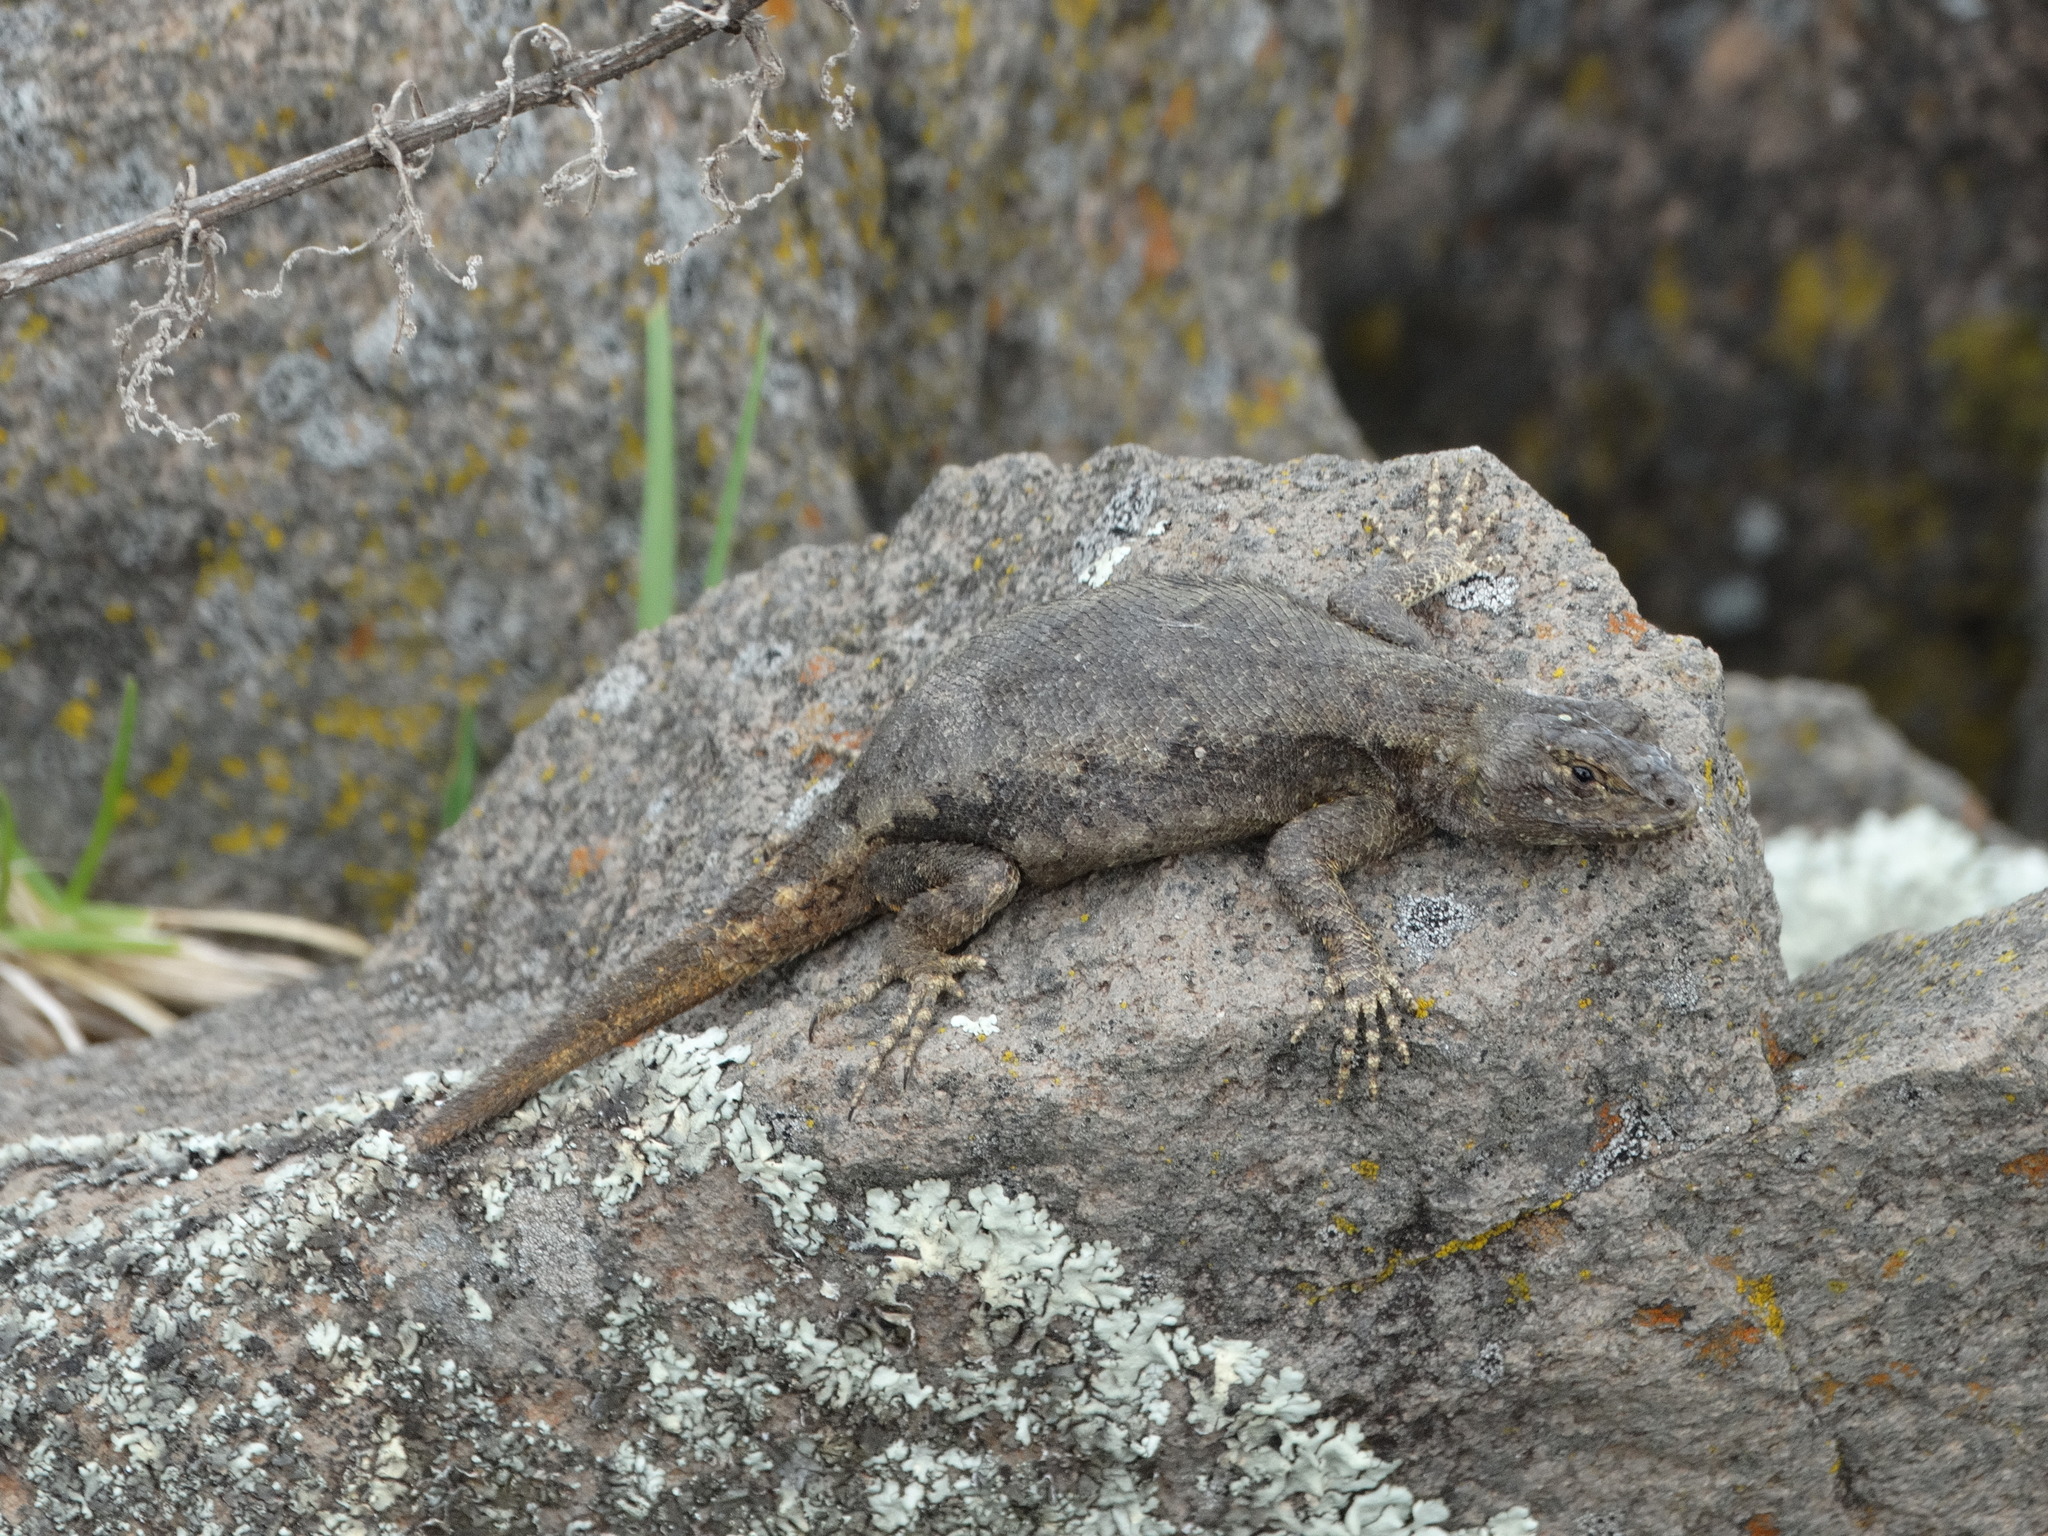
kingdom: Animalia
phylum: Chordata
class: Squamata
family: Phrynosomatidae
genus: Sceloporus
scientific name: Sceloporus grammicus
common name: Mesquite lizard
